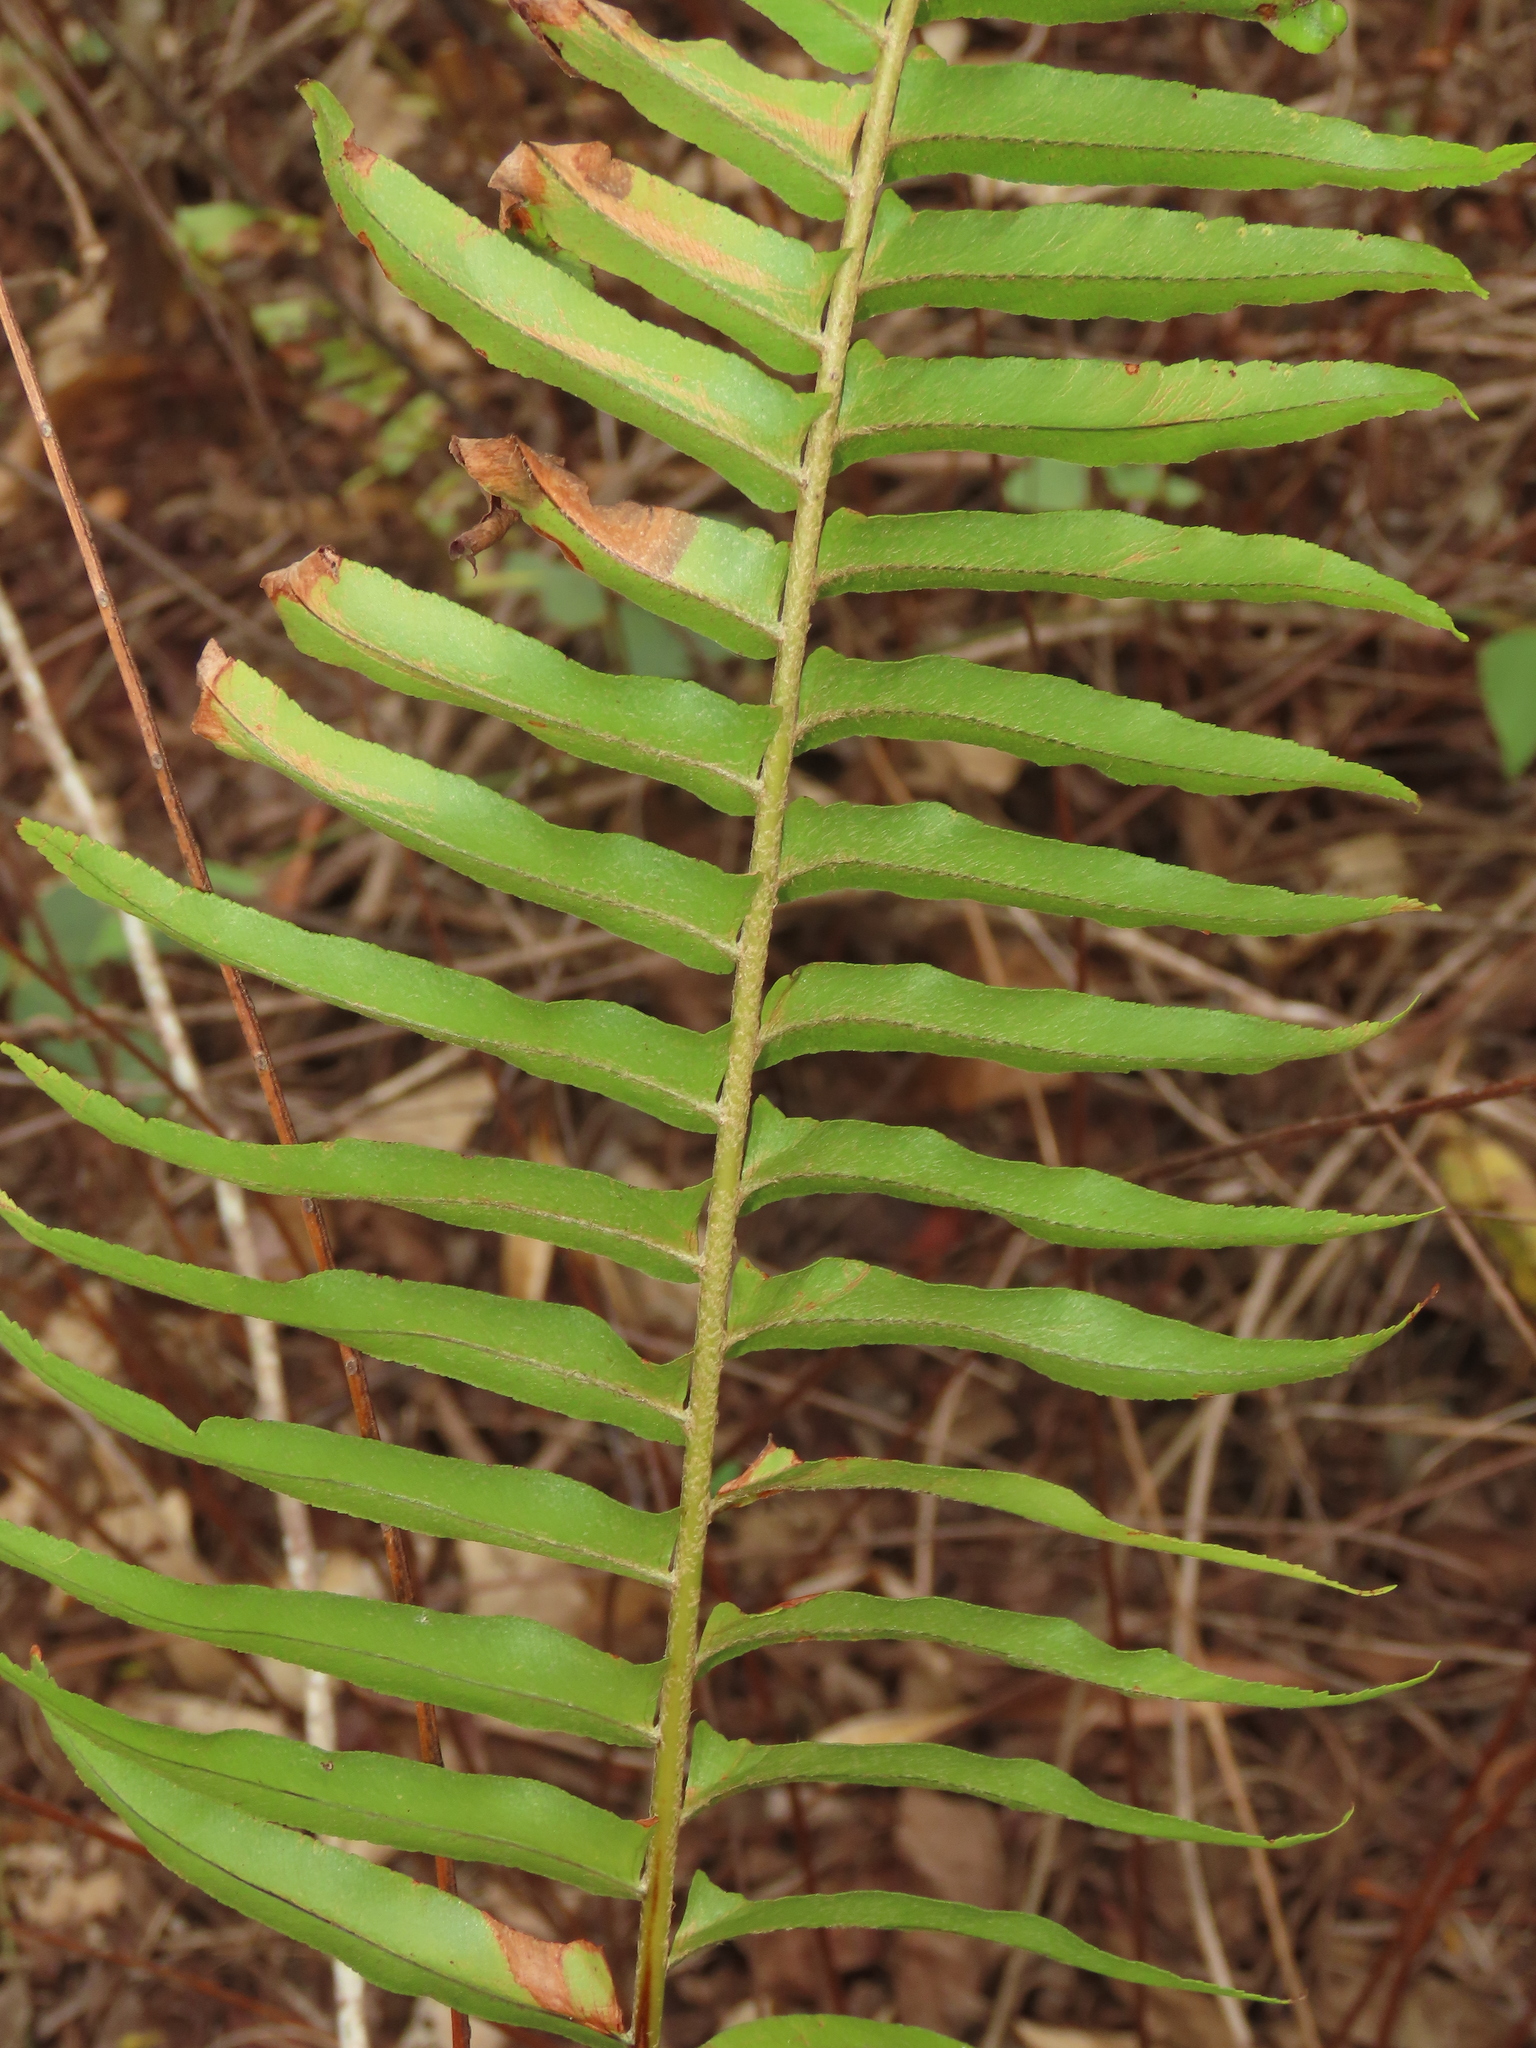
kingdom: Plantae
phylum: Tracheophyta
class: Polypodiopsida
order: Polypodiales
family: Nephrolepidaceae
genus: Nephrolepis
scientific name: Nephrolepis brownii
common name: Asian swordfern
